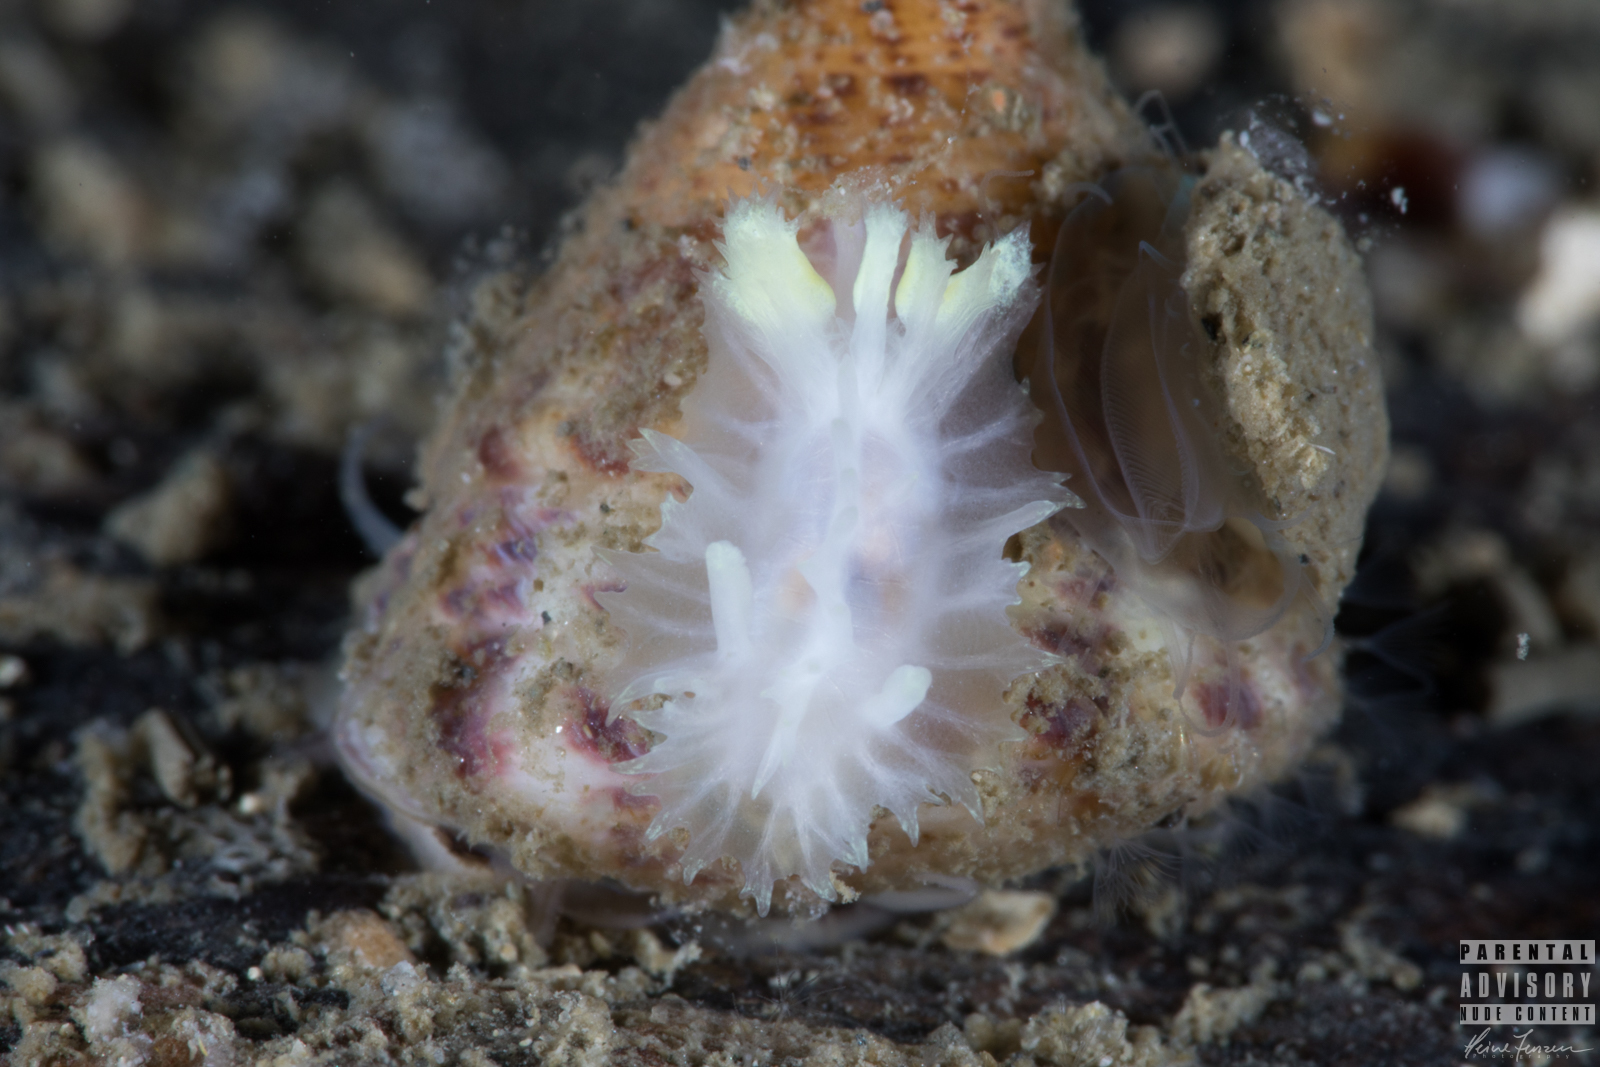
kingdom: Animalia
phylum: Mollusca
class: Gastropoda
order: Nudibranchia
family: Goniodorididae
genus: Lophodoris
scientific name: Lophodoris danielsseni
